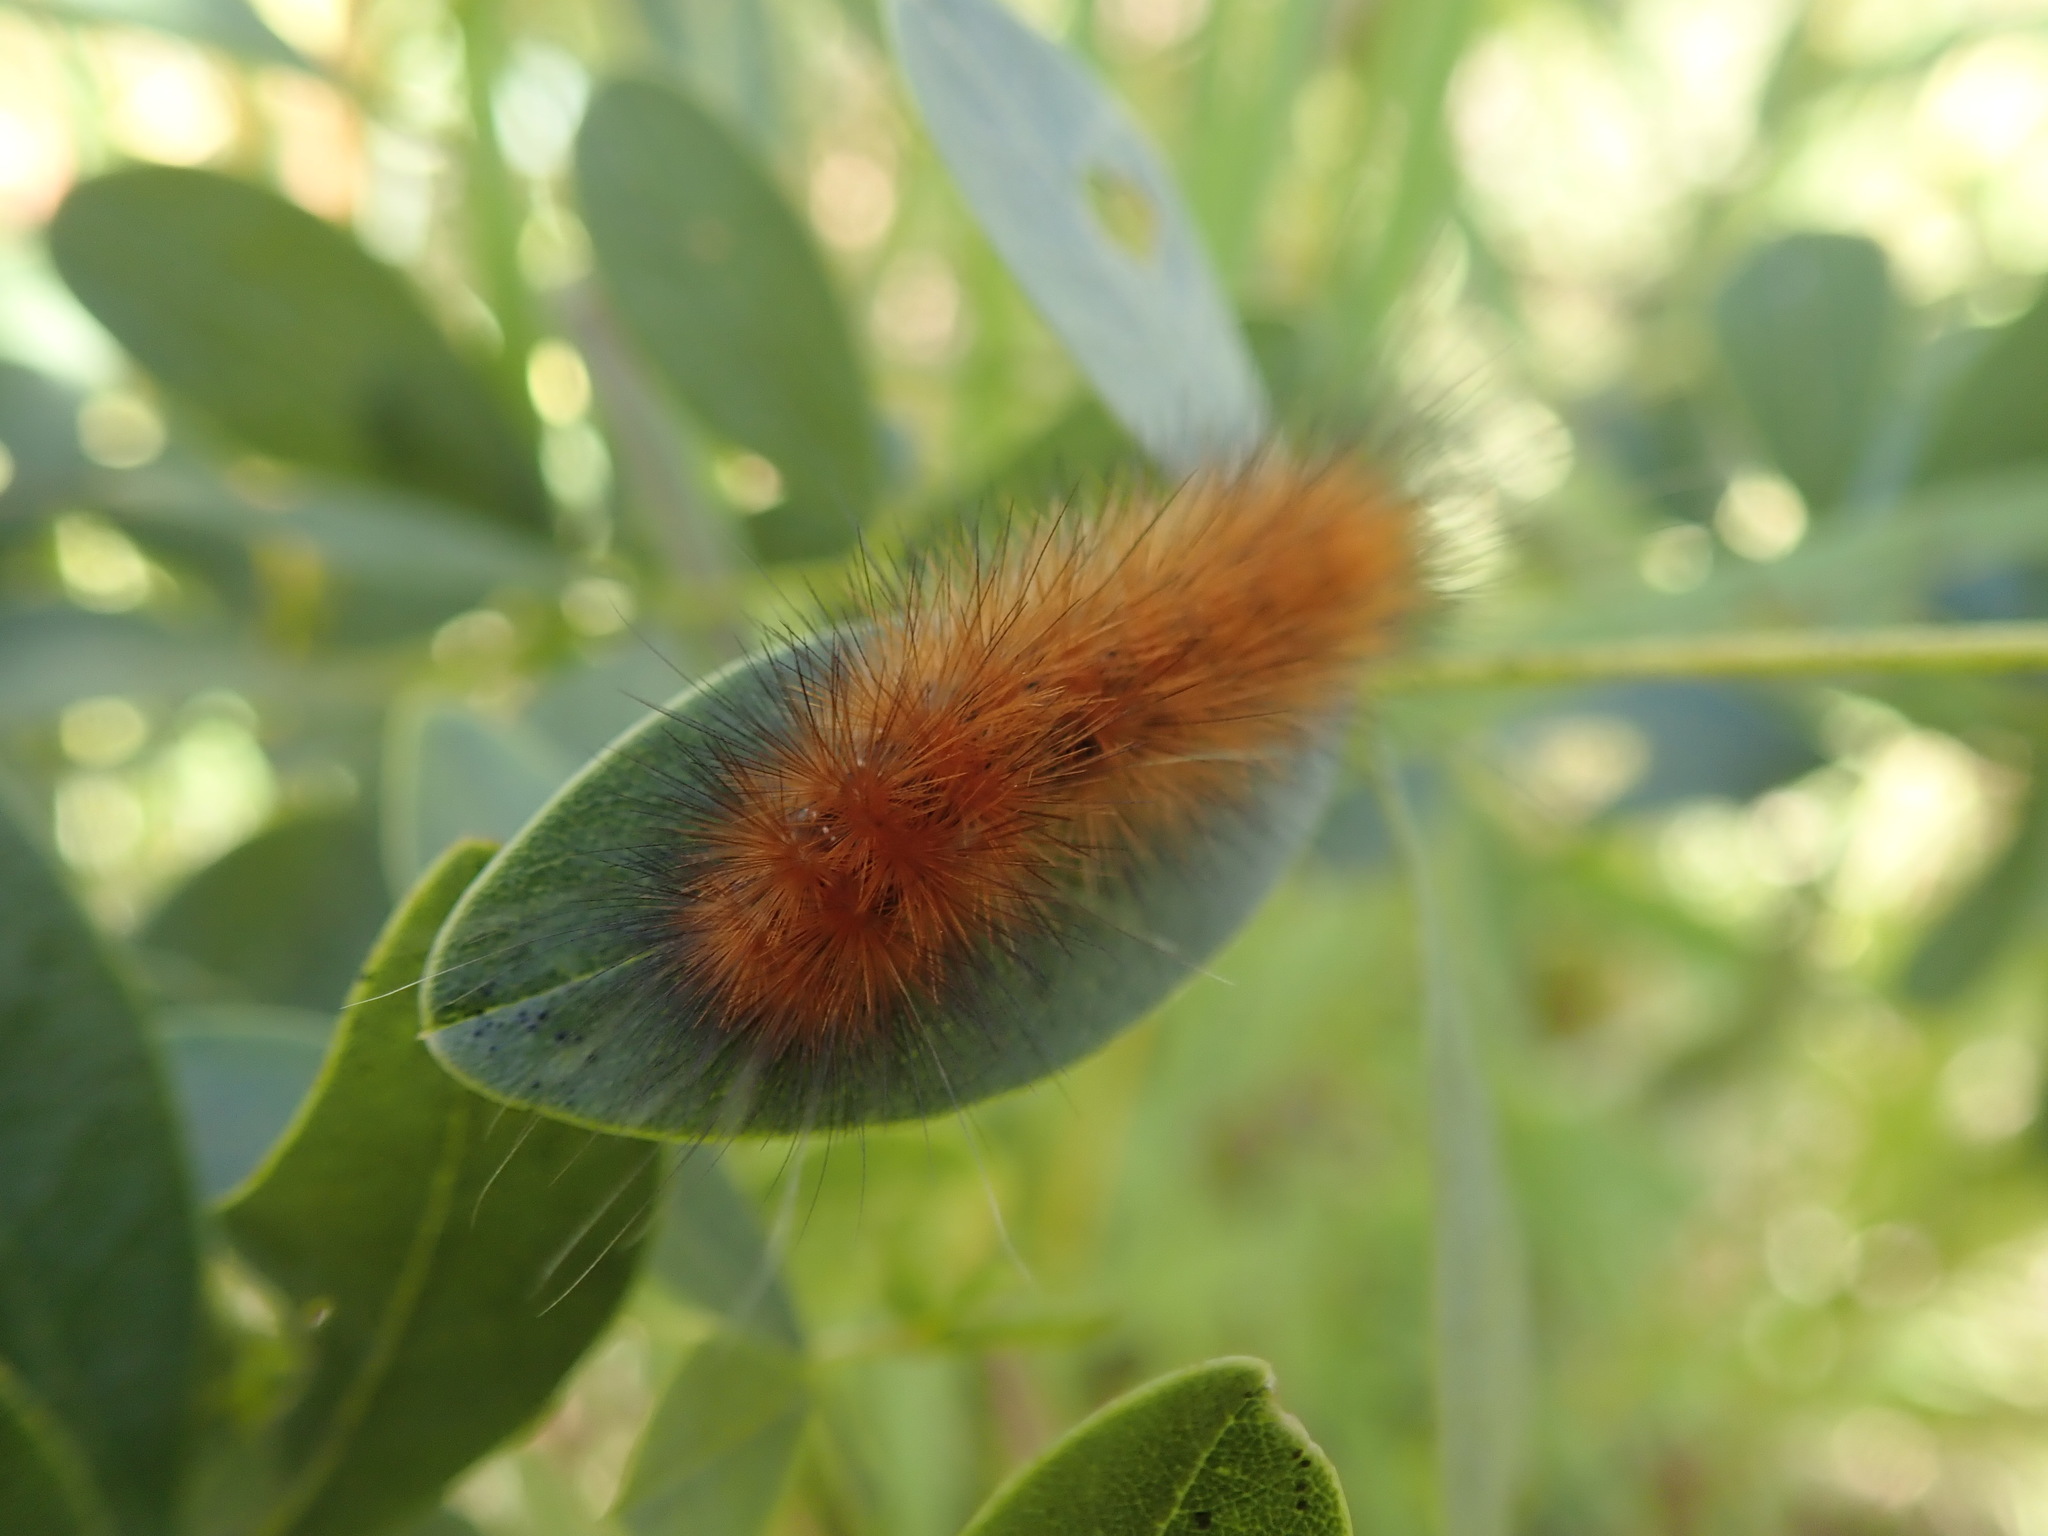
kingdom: Animalia
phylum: Arthropoda
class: Insecta
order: Lepidoptera
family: Erebidae
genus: Spilosoma
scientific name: Spilosoma virginica
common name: Virginia tiger moth
